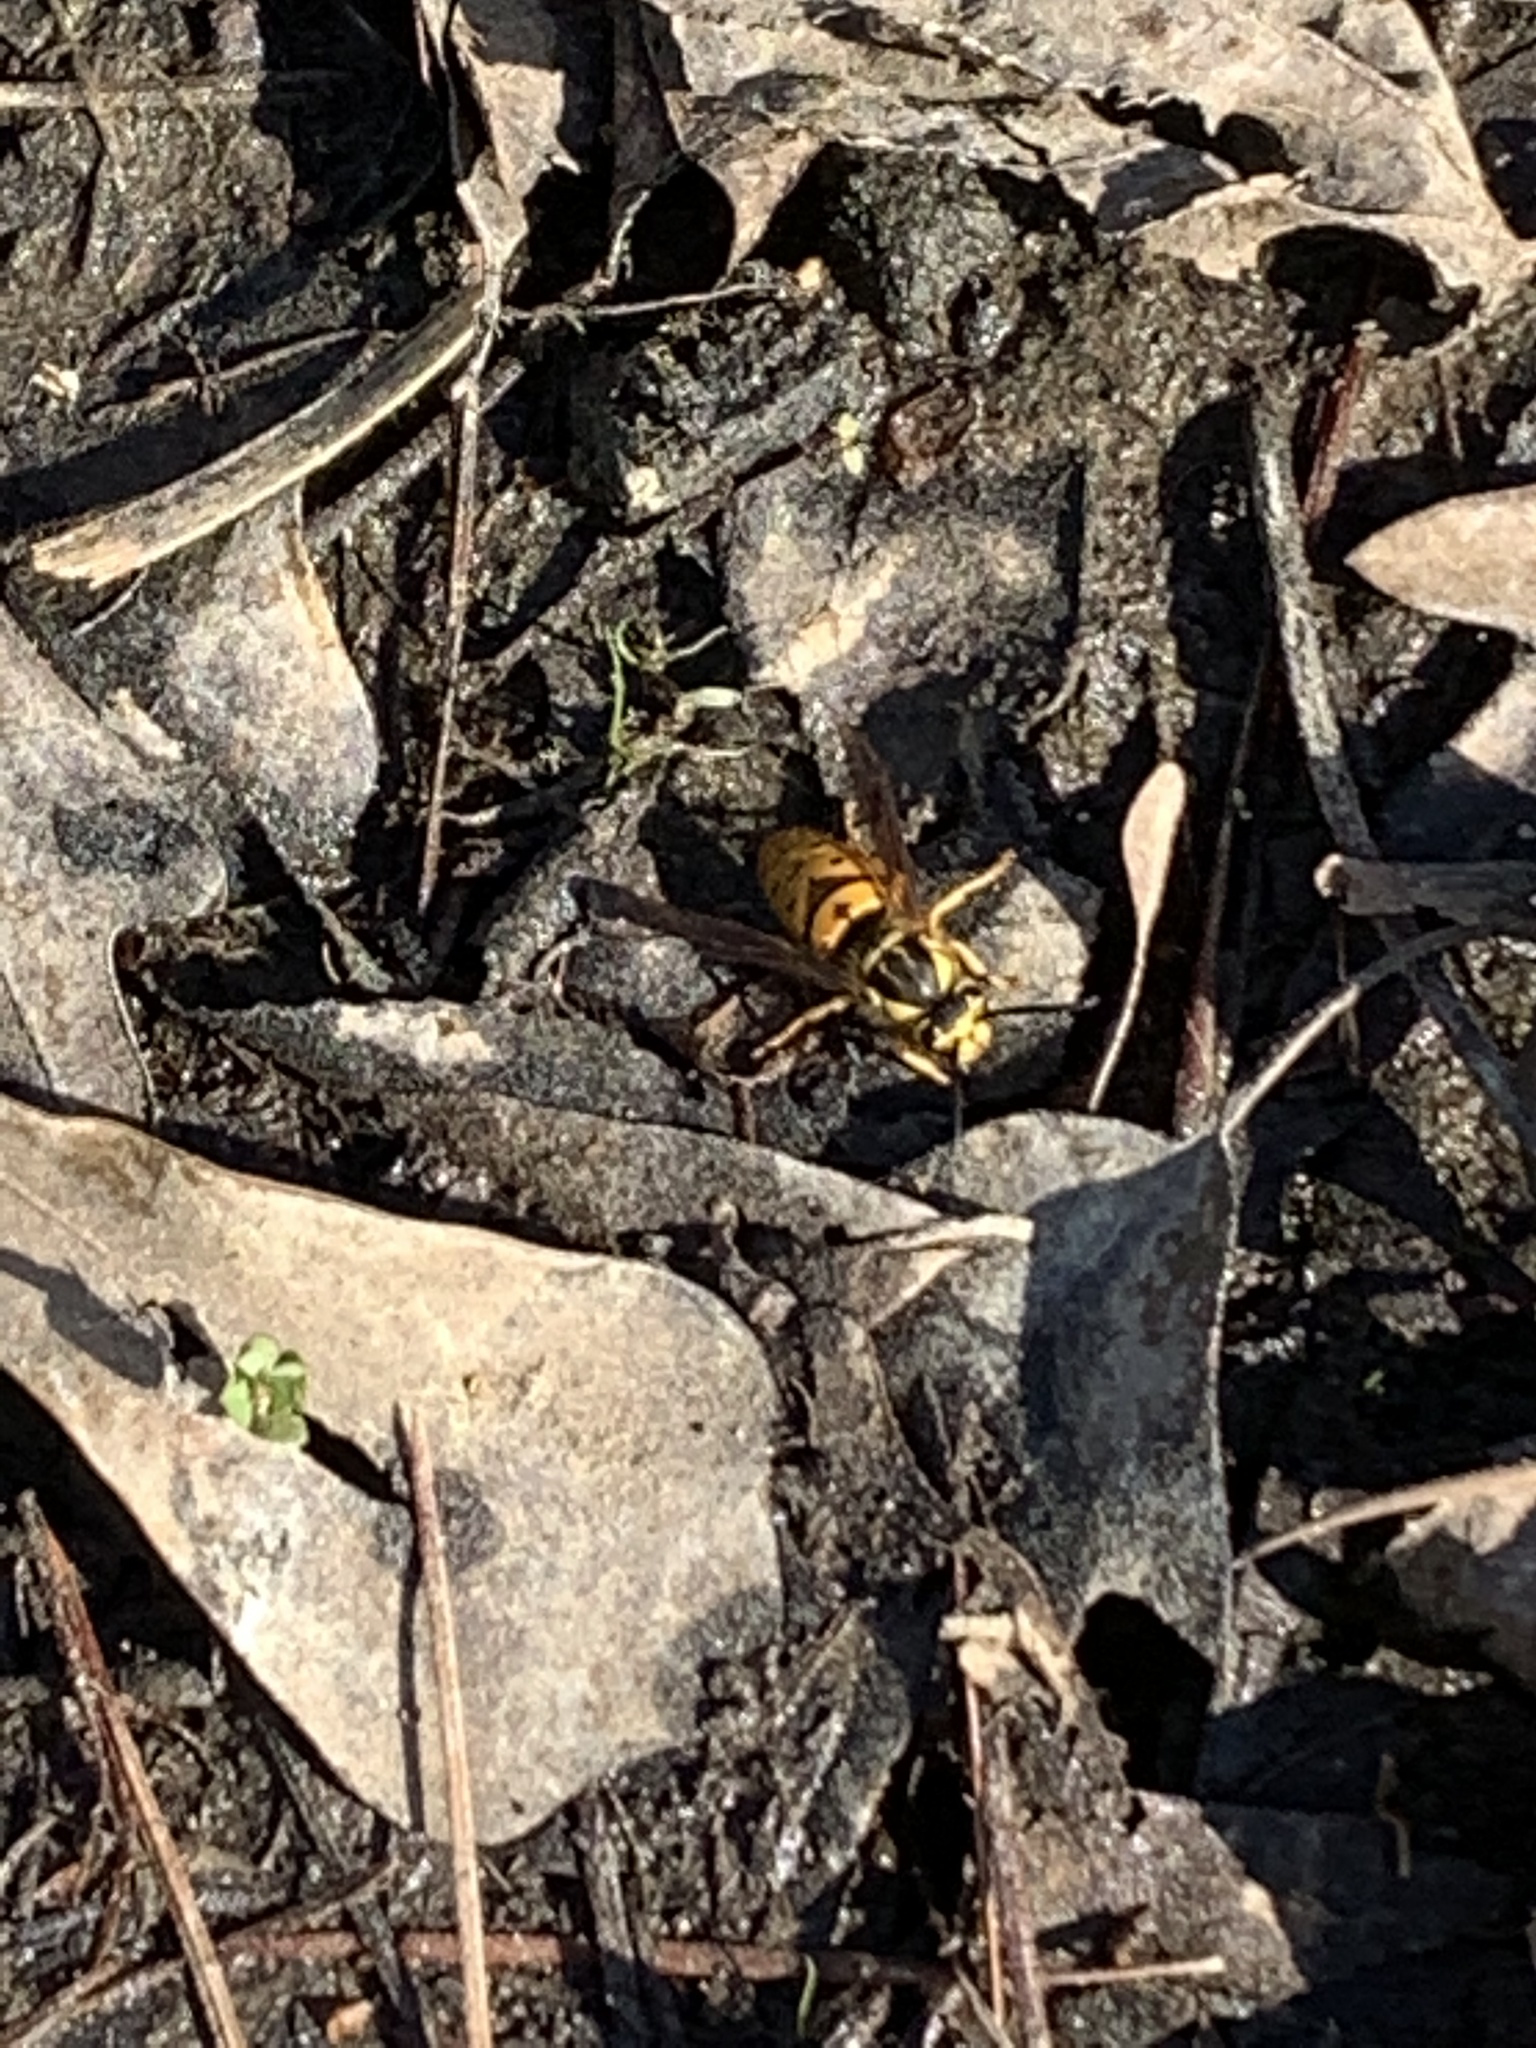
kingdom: Animalia
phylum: Arthropoda
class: Insecta
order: Hymenoptera
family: Vespidae
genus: Vespula
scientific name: Vespula maculifrons
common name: Eastern yellowjacket
